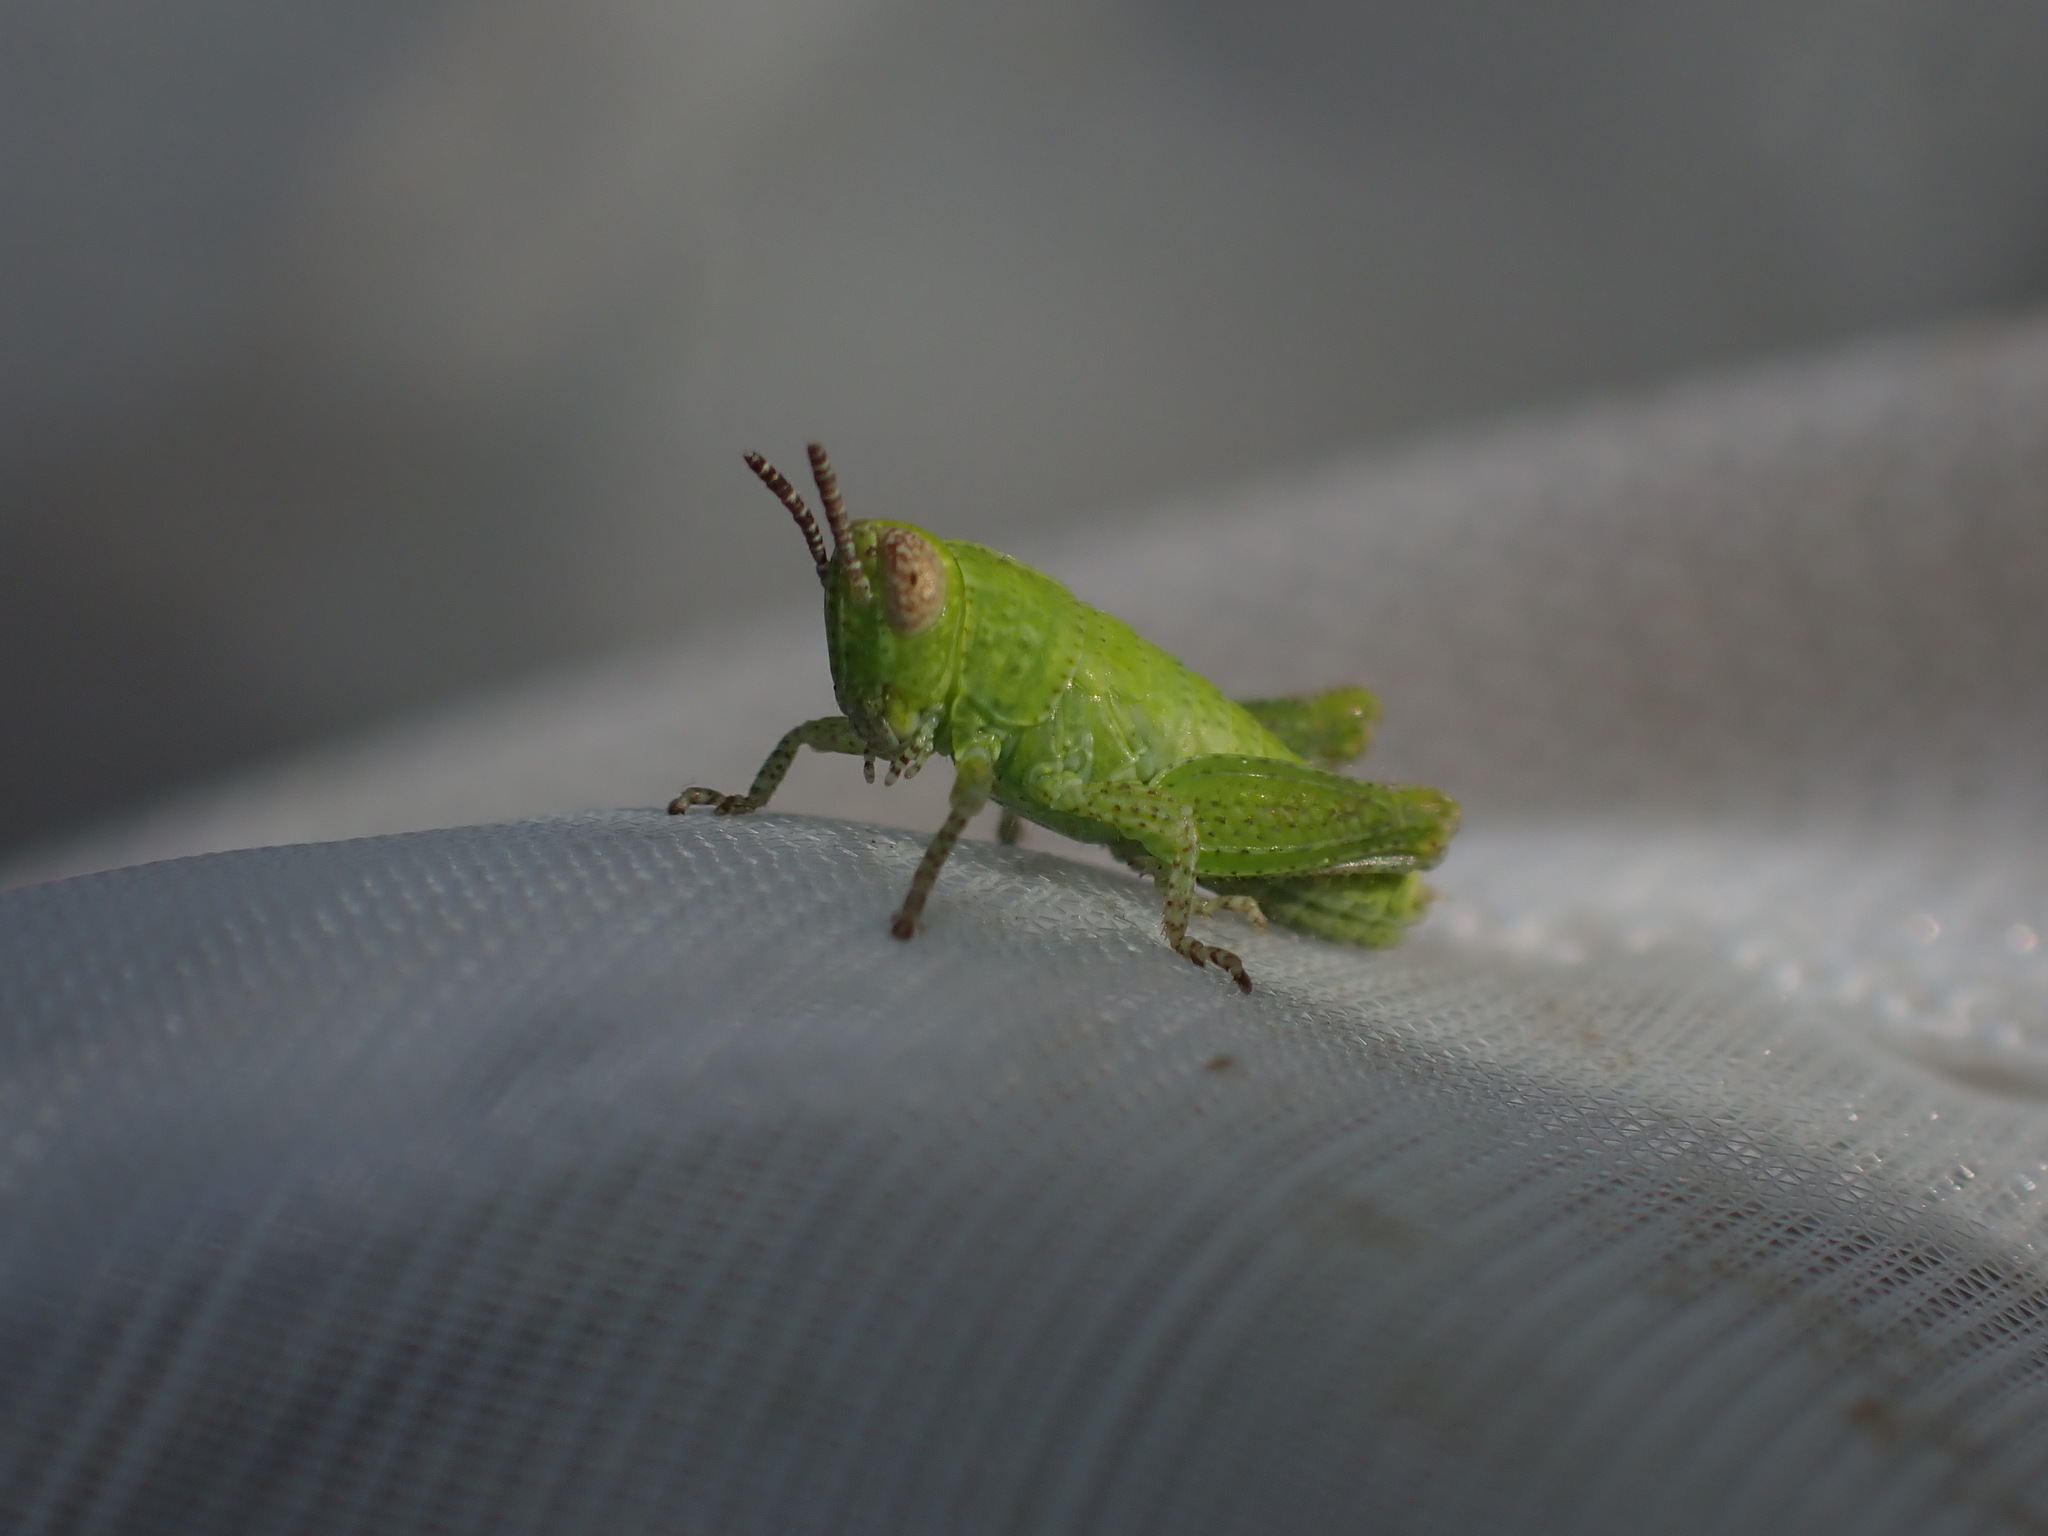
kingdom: Animalia
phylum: Arthropoda
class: Insecta
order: Orthoptera
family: Acrididae
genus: Pezotettix
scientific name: Pezotettix giornae
